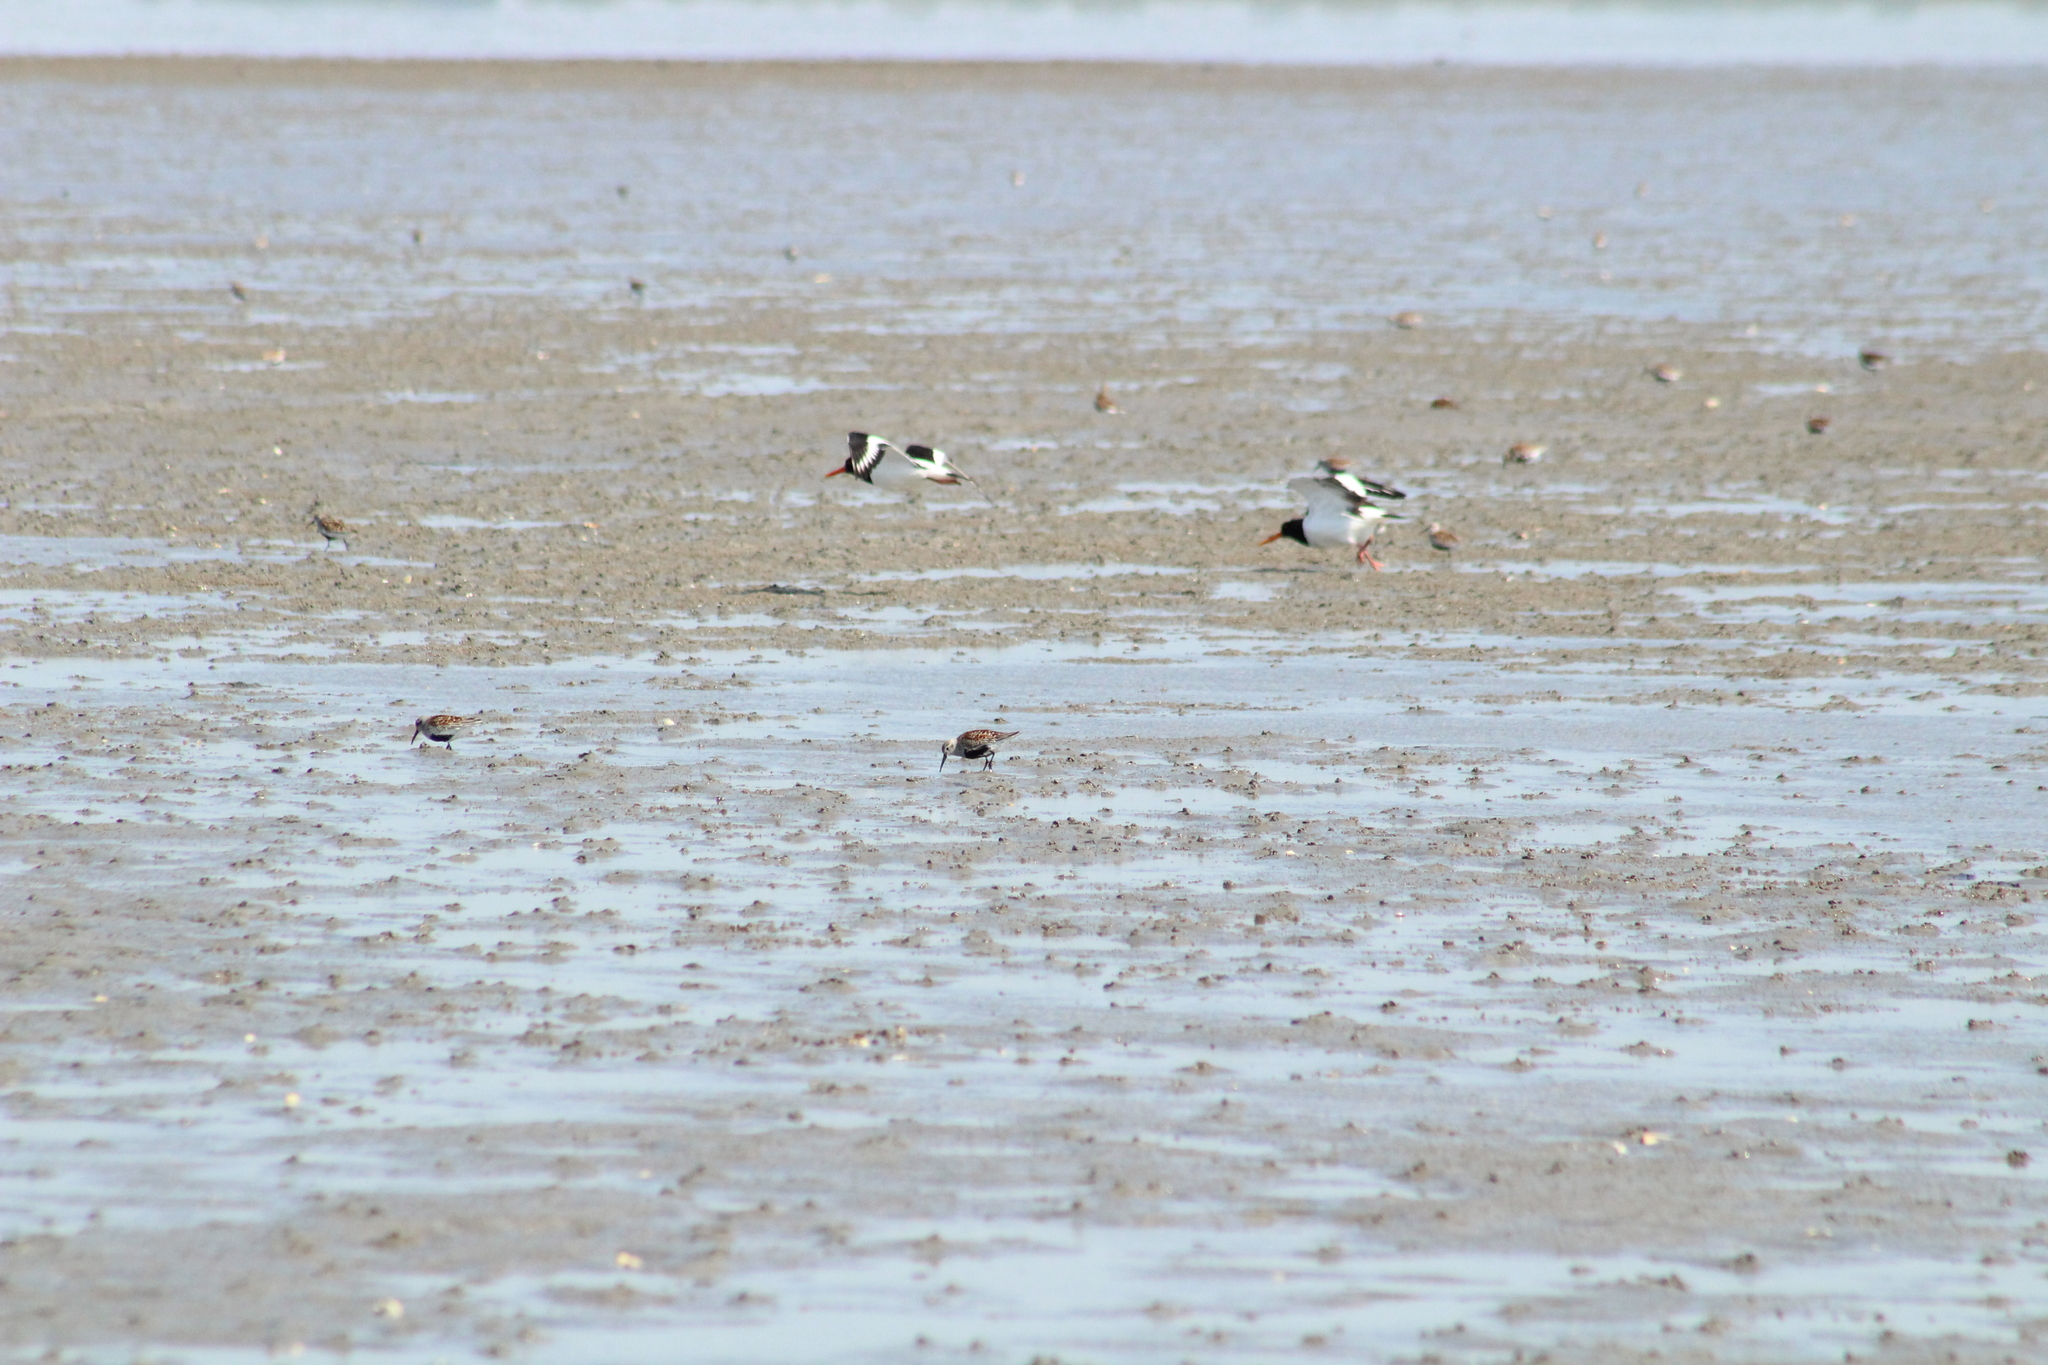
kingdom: Animalia
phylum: Chordata
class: Aves
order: Charadriiformes
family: Haematopodidae
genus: Haematopus
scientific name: Haematopus ostralegus
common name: Eurasian oystercatcher
